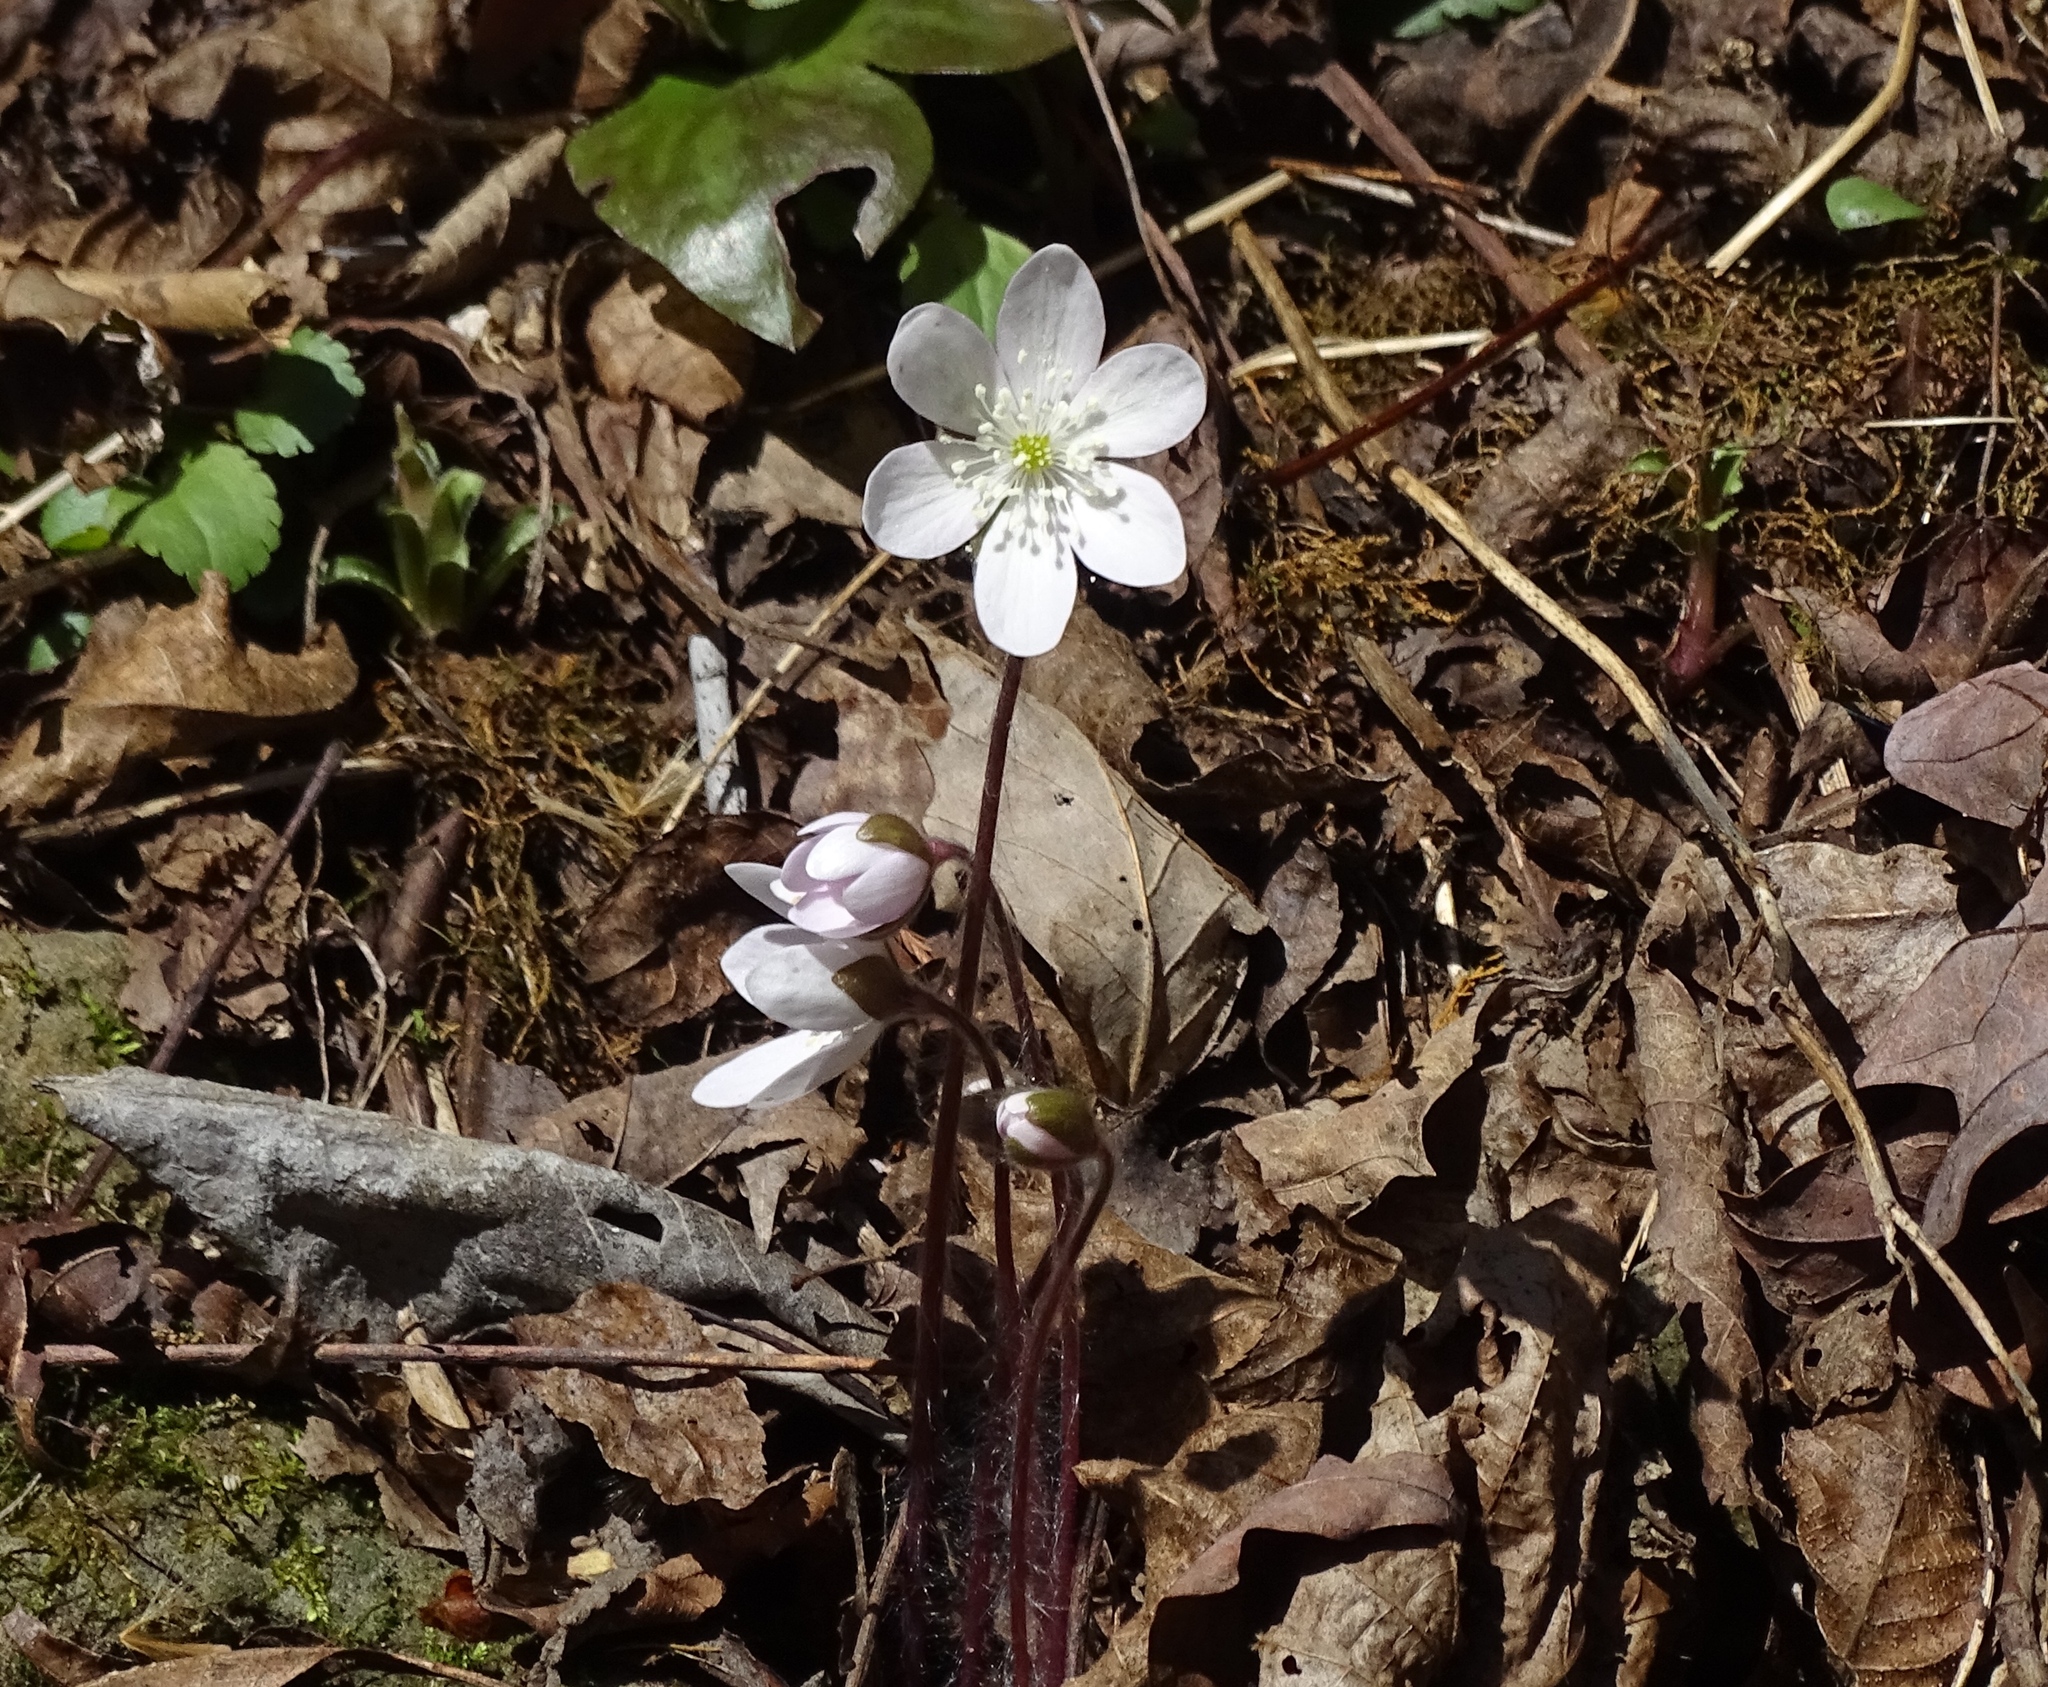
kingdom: Plantae
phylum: Tracheophyta
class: Magnoliopsida
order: Ranunculales
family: Ranunculaceae
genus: Hepatica
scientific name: Hepatica acutiloba
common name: Sharp-lobed hepatica
